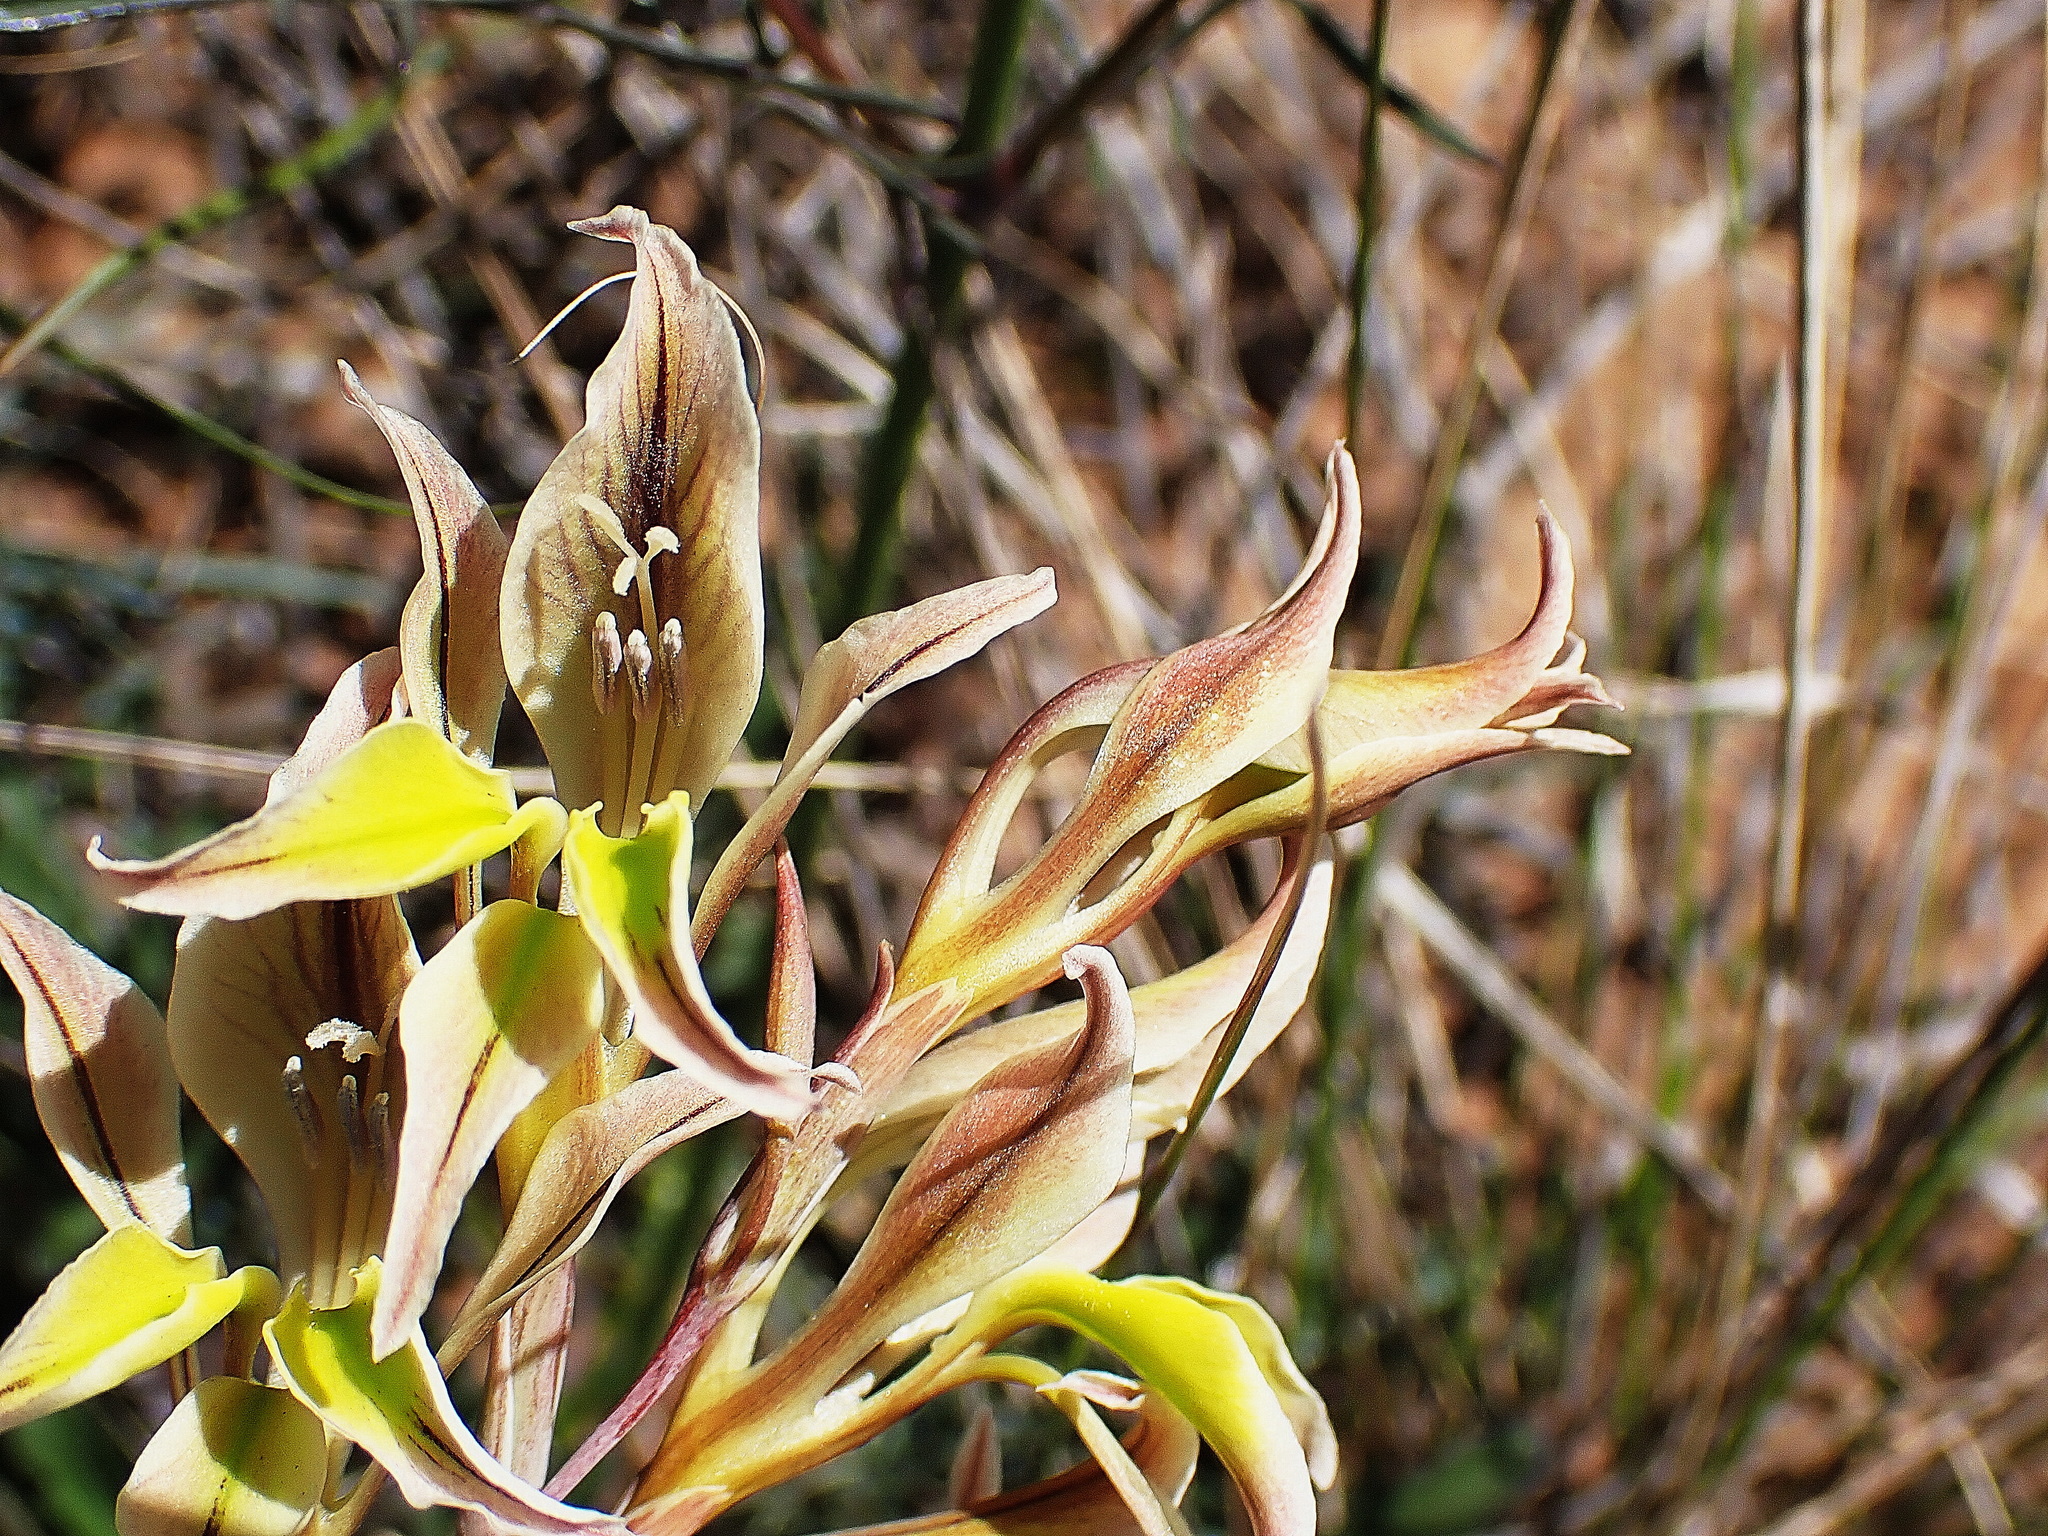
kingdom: Plantae
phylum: Tracheophyta
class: Liliopsida
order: Asparagales
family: Iridaceae
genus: Gladiolus
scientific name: Gladiolus permeabilis
